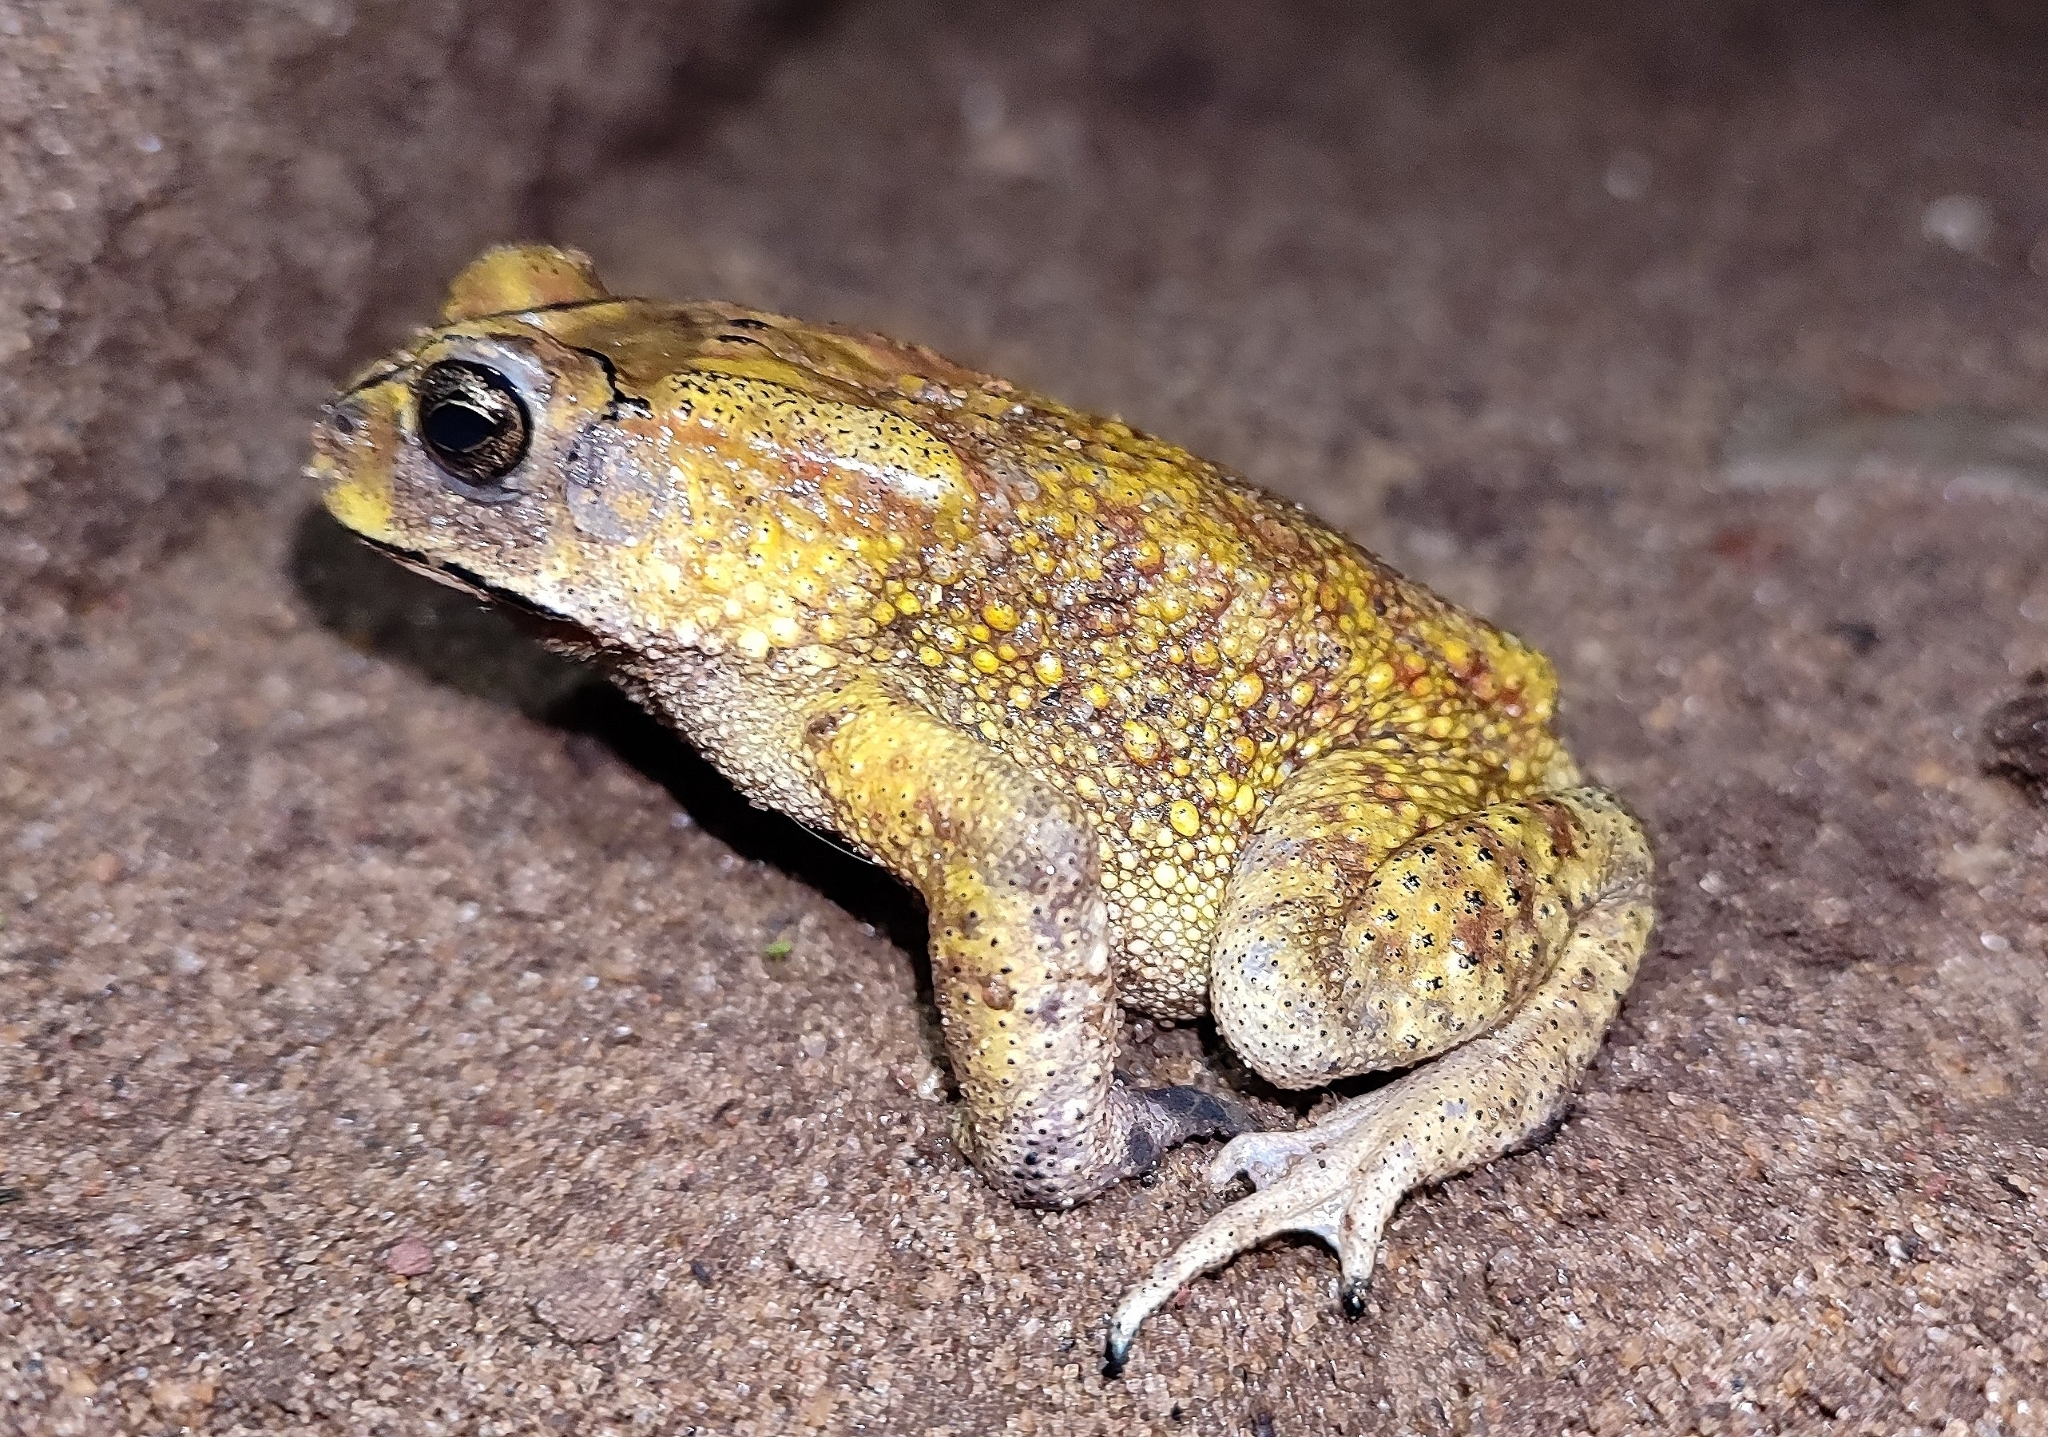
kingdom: Animalia
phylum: Chordata
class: Amphibia
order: Anura
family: Bufonidae
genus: Duttaphrynus
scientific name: Duttaphrynus melanostictus
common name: Common sunda toad
